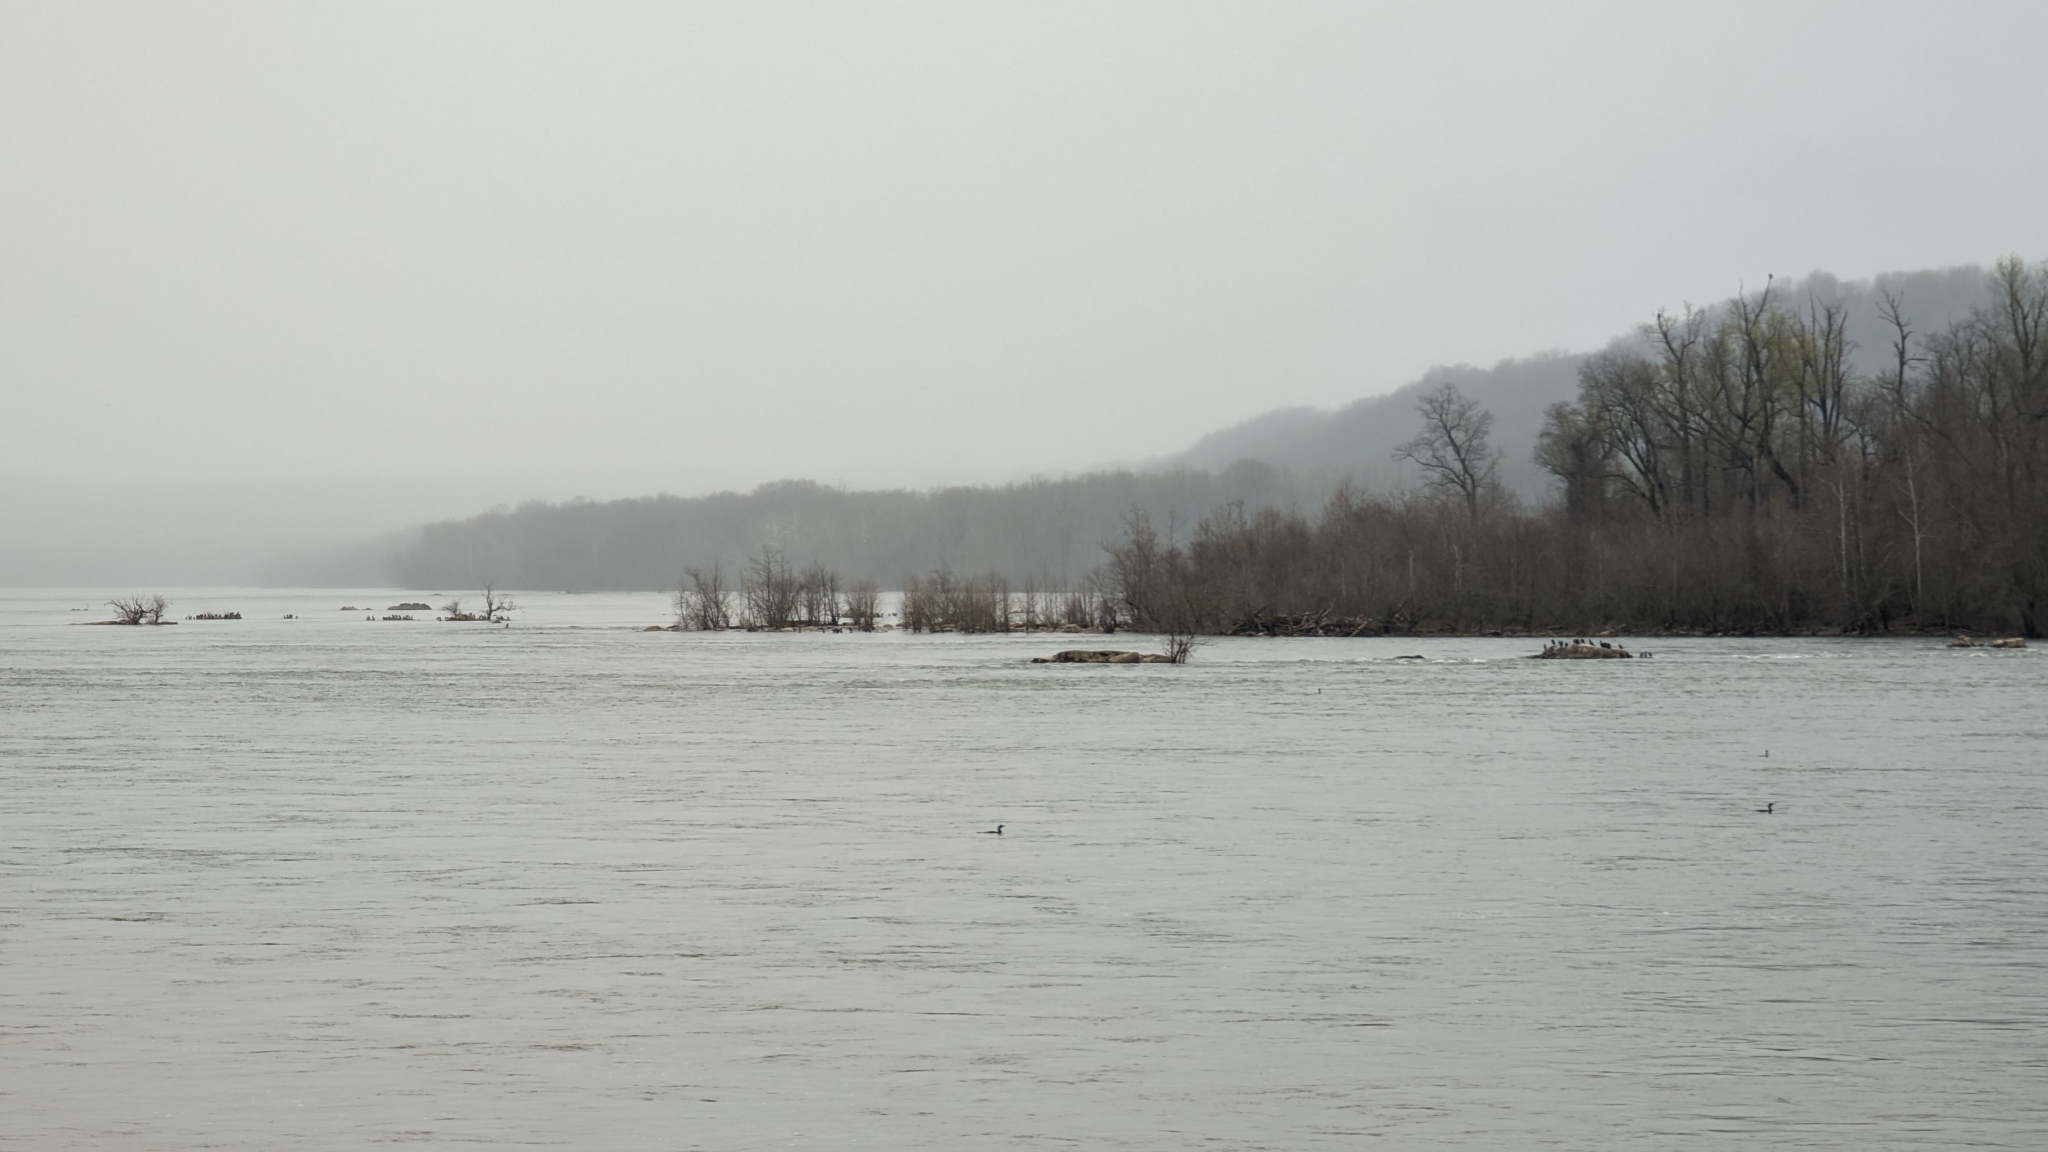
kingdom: Animalia
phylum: Chordata
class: Aves
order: Suliformes
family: Phalacrocoracidae
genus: Phalacrocorax
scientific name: Phalacrocorax auritus
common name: Double-crested cormorant
